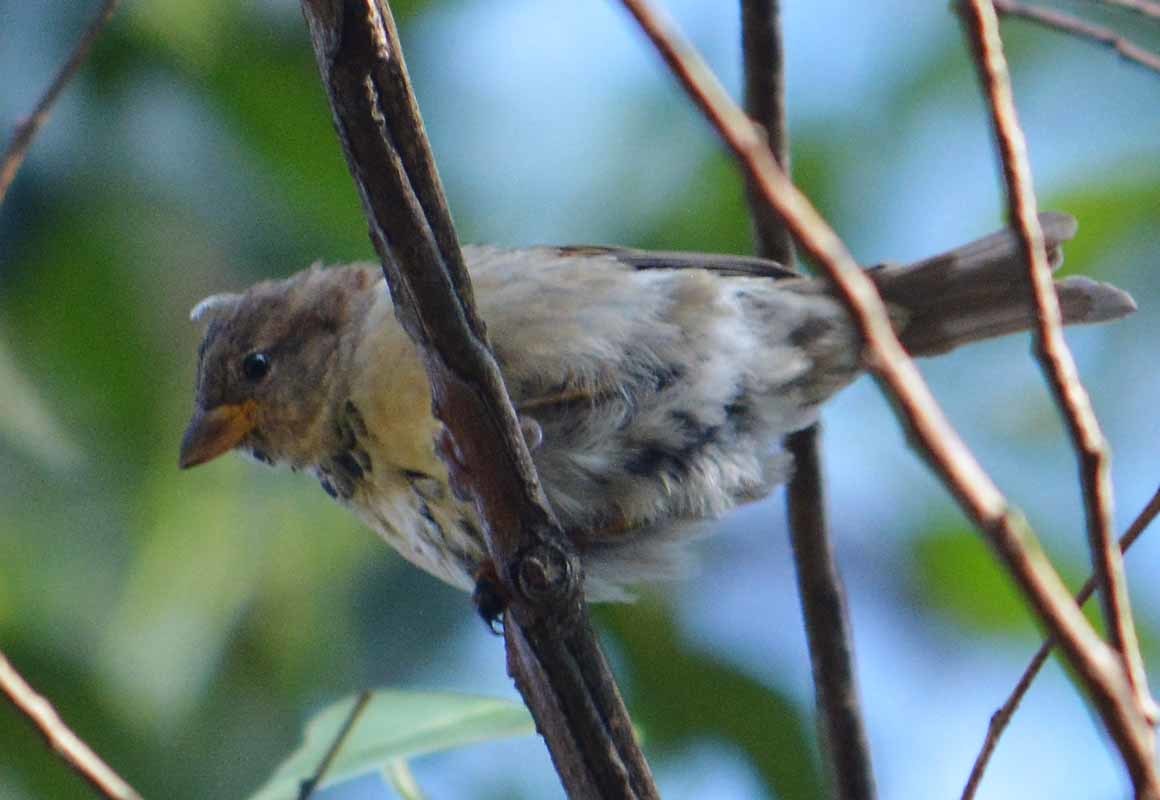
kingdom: Animalia
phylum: Chordata
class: Aves
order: Passeriformes
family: Passeridae
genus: Passer
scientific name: Passer domesticus
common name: House sparrow
